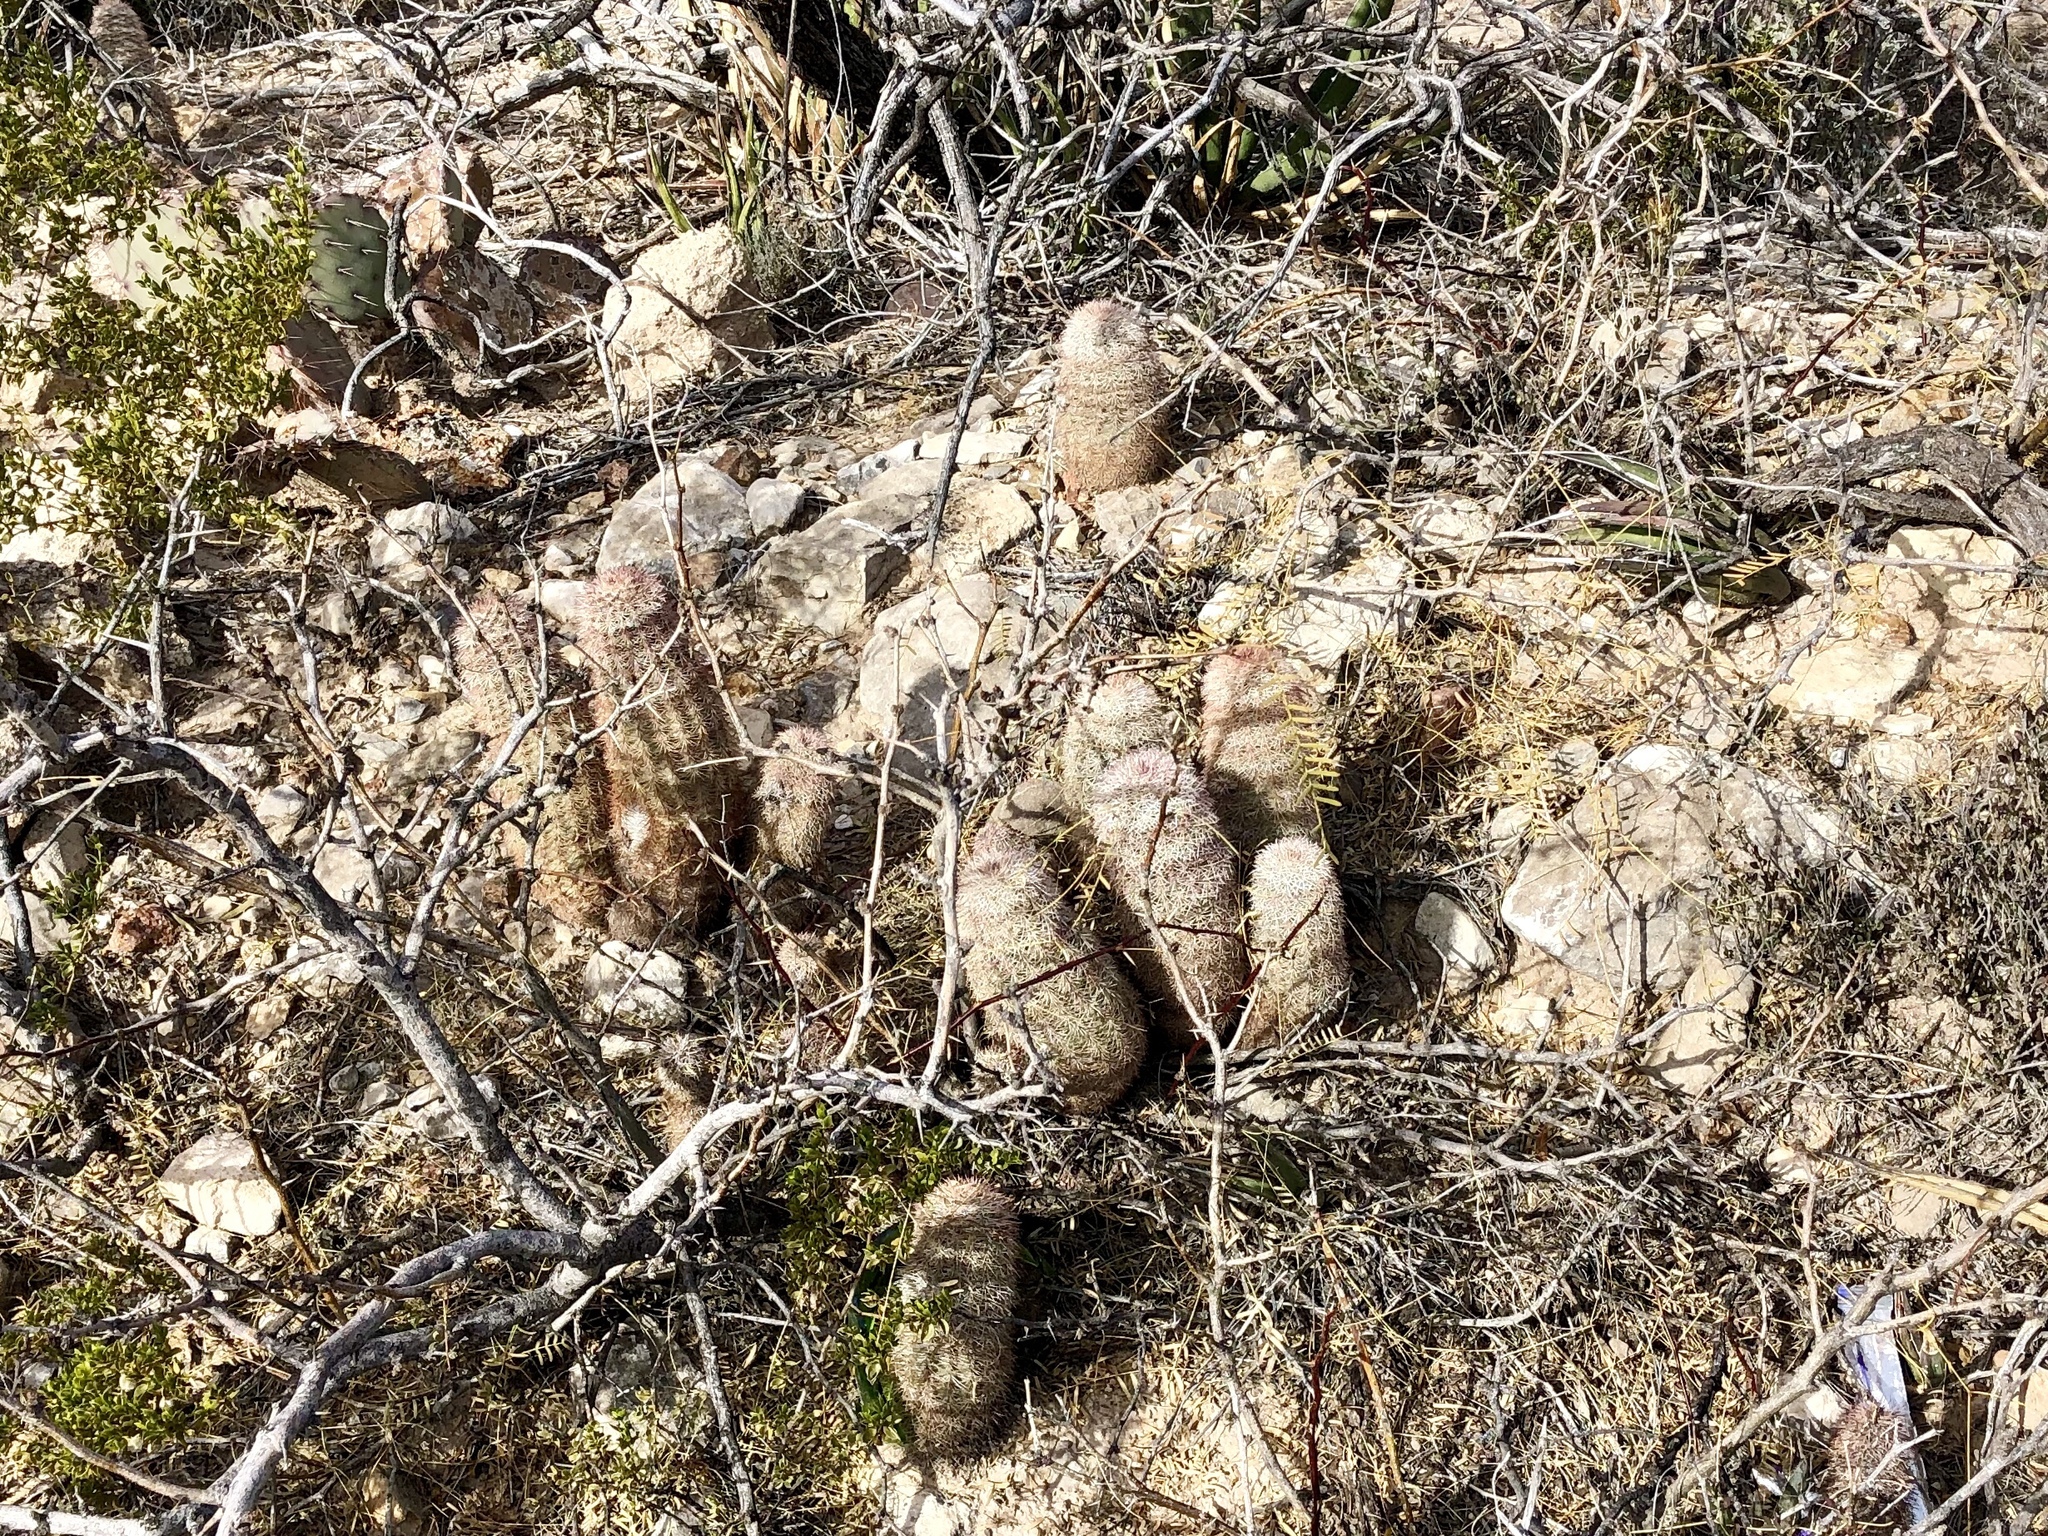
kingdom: Plantae
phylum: Tracheophyta
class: Magnoliopsida
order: Caryophyllales
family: Cactaceae
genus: Echinocereus
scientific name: Echinocereus dasyacanthus
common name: Spiny hedgehog cactus
